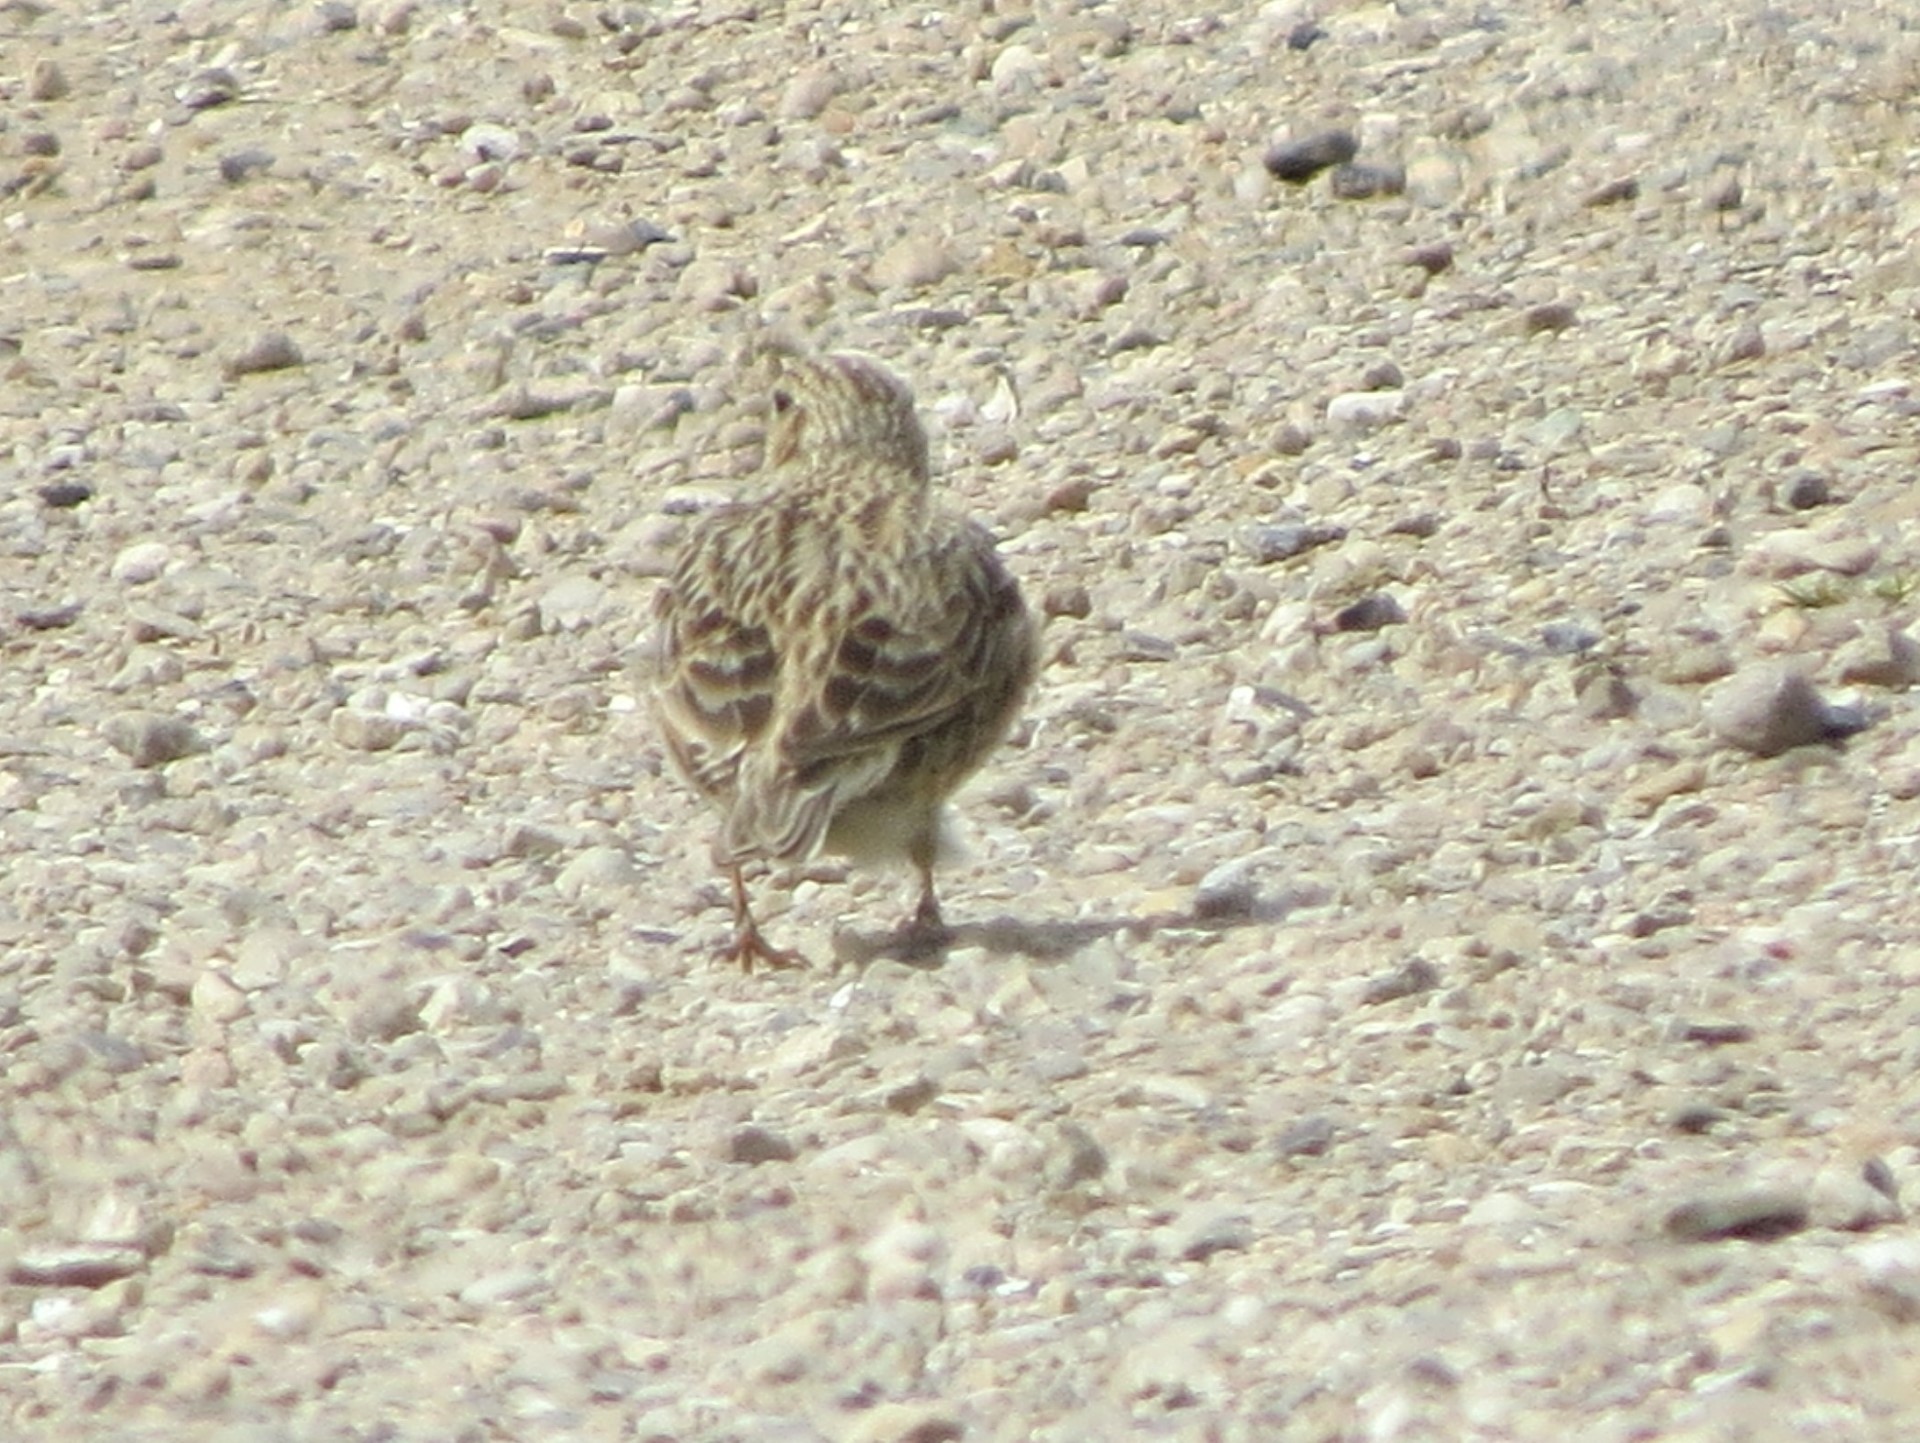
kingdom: Animalia
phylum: Chordata
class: Aves
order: Passeriformes
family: Alaudidae
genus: Alauda
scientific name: Alauda arvensis
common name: Eurasian skylark
